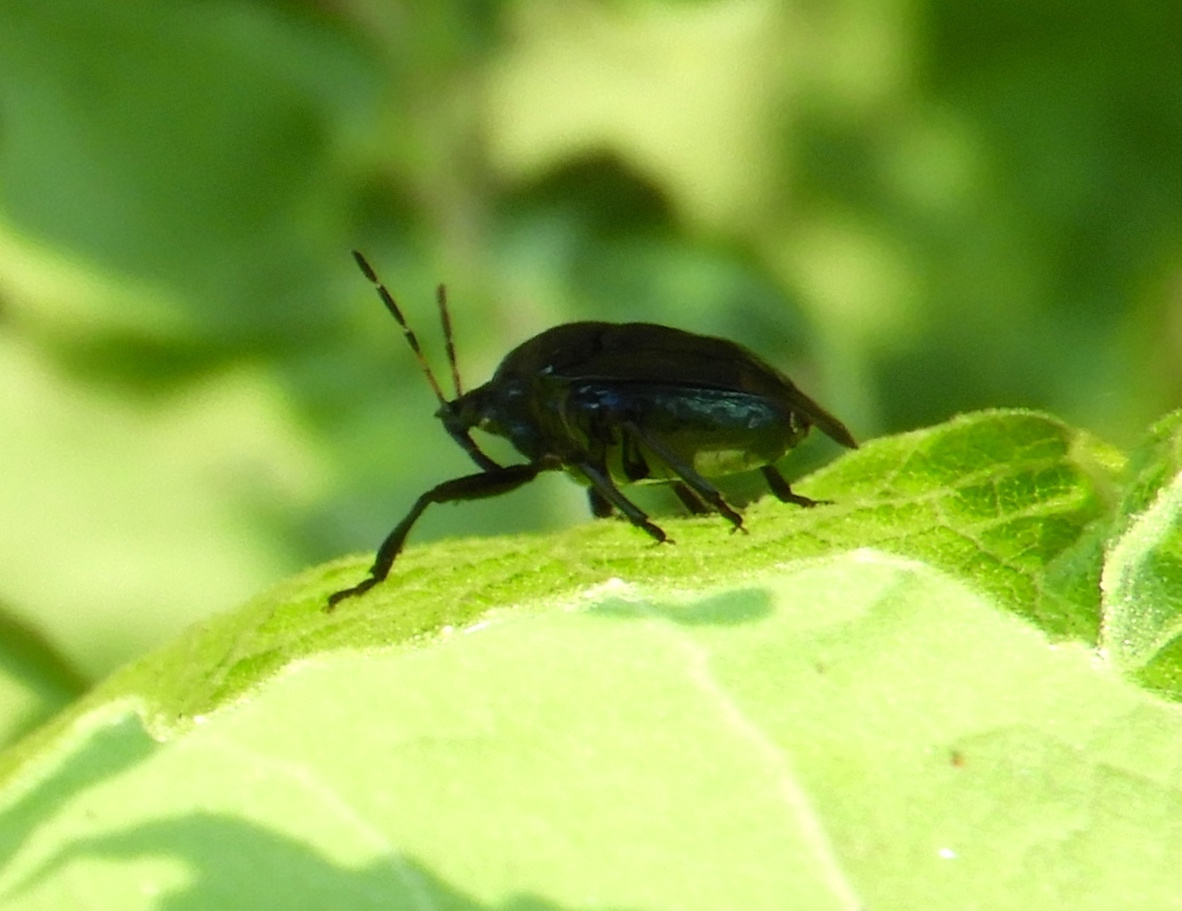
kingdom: Animalia
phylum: Arthropoda
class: Insecta
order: Hemiptera
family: Pentatomidae
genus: Stiretrus
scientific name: Stiretrus
